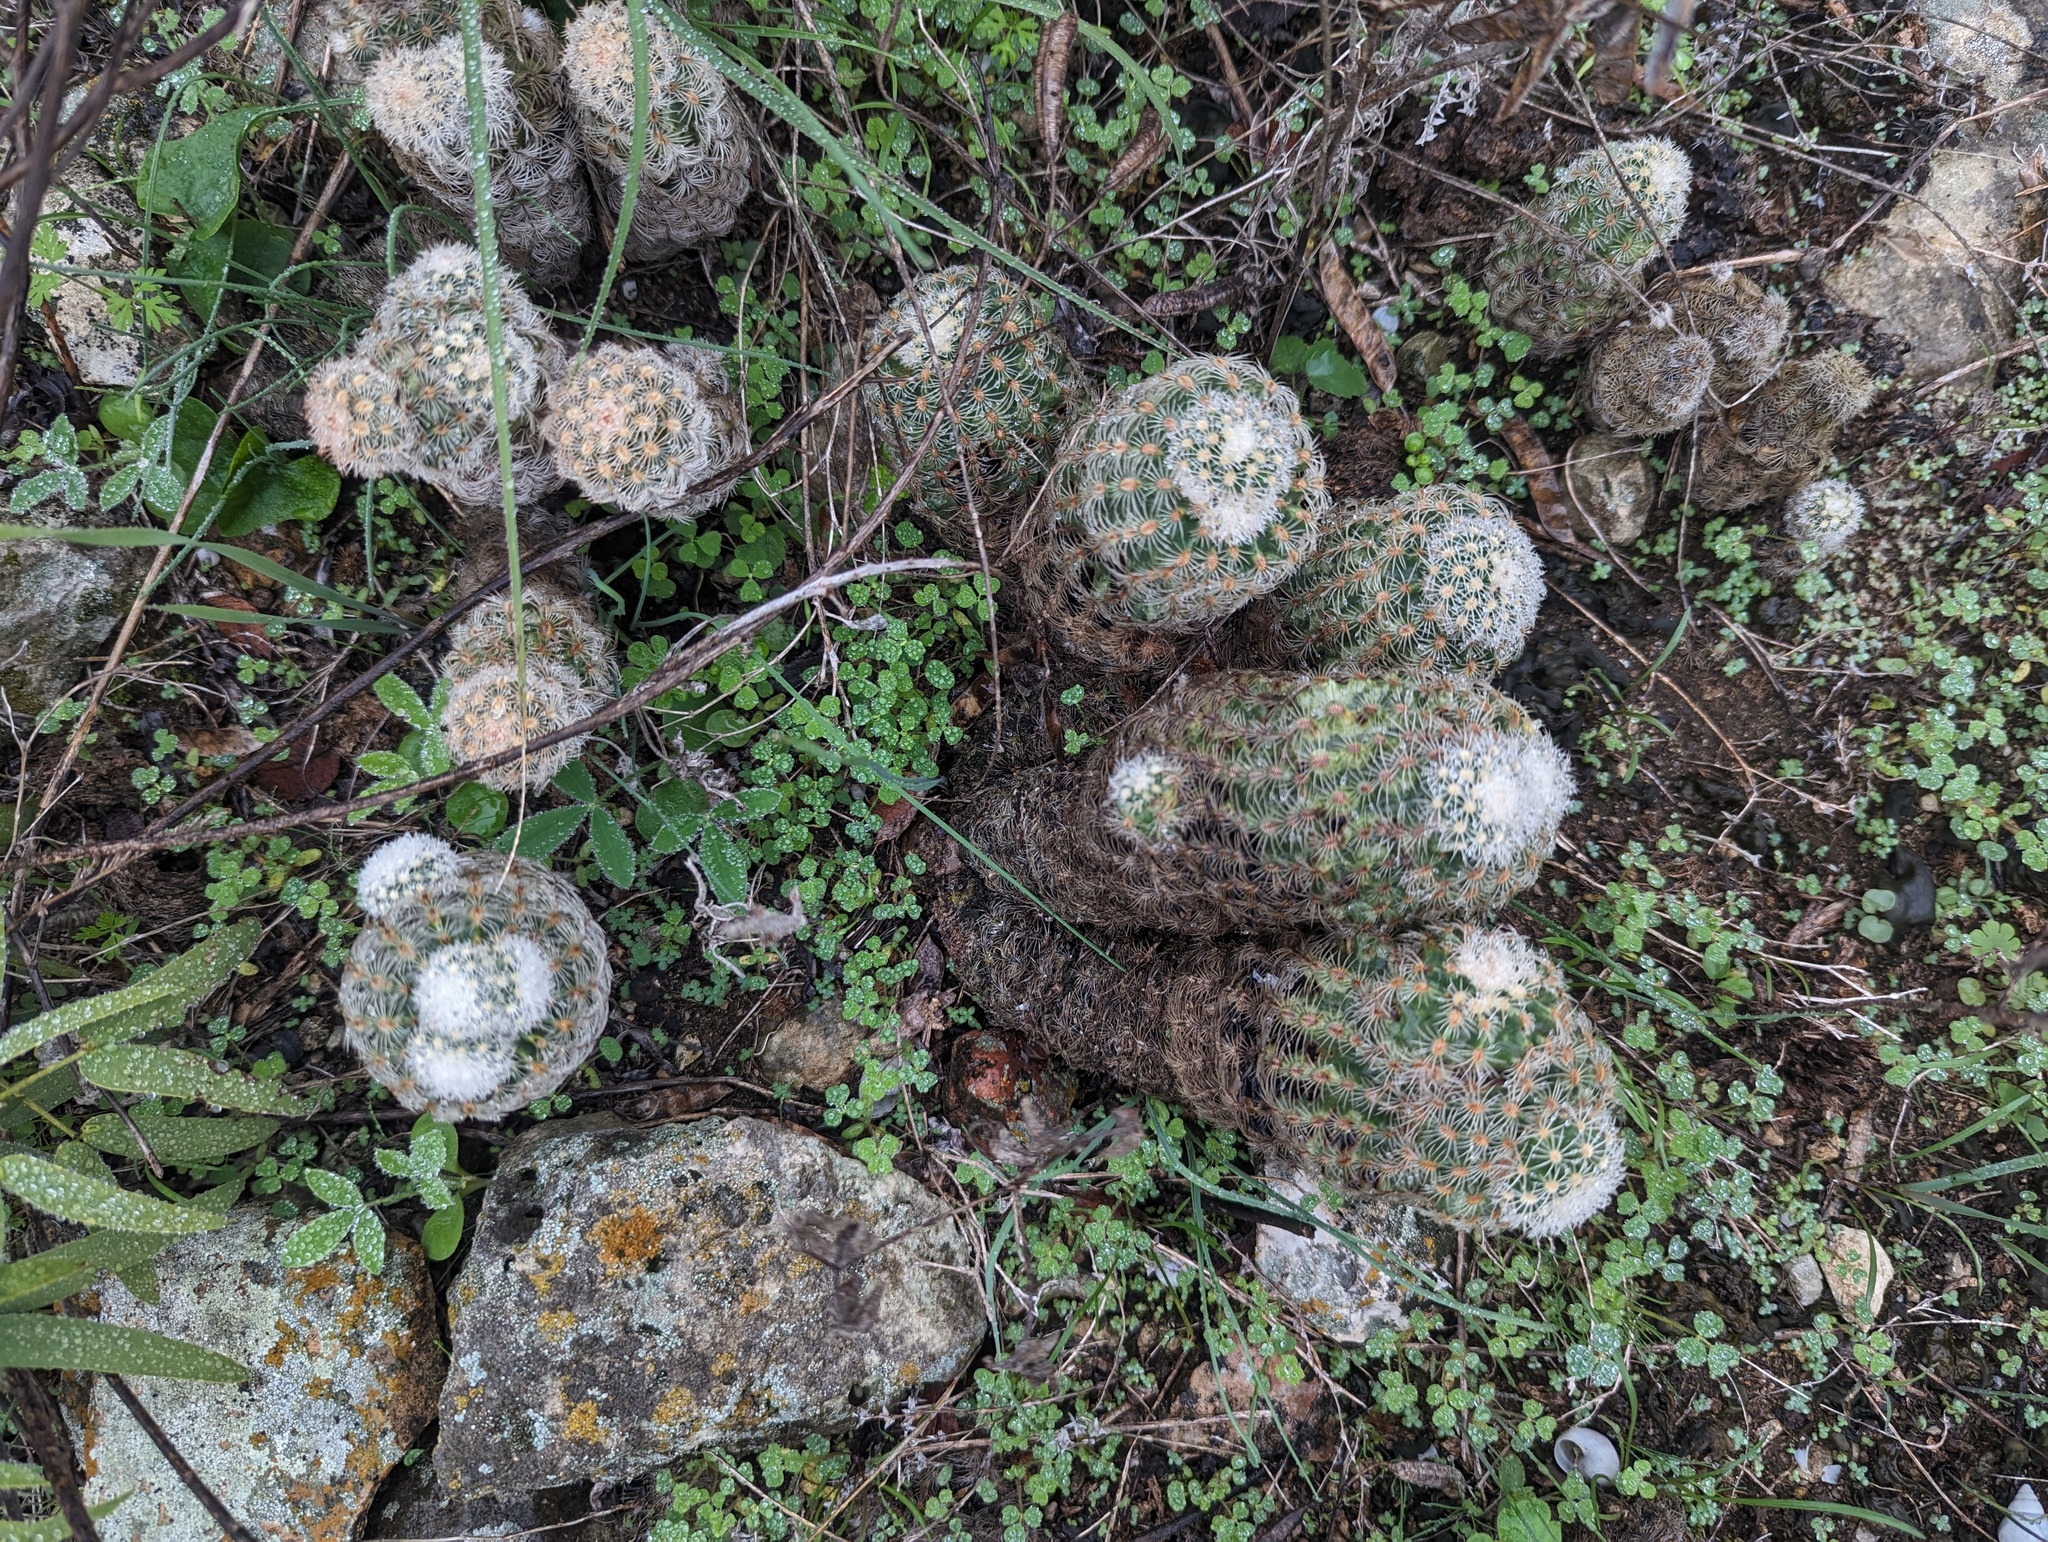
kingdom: Plantae
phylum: Tracheophyta
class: Magnoliopsida
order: Caryophyllales
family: Cactaceae
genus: Echinocereus
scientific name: Echinocereus reichenbachii
